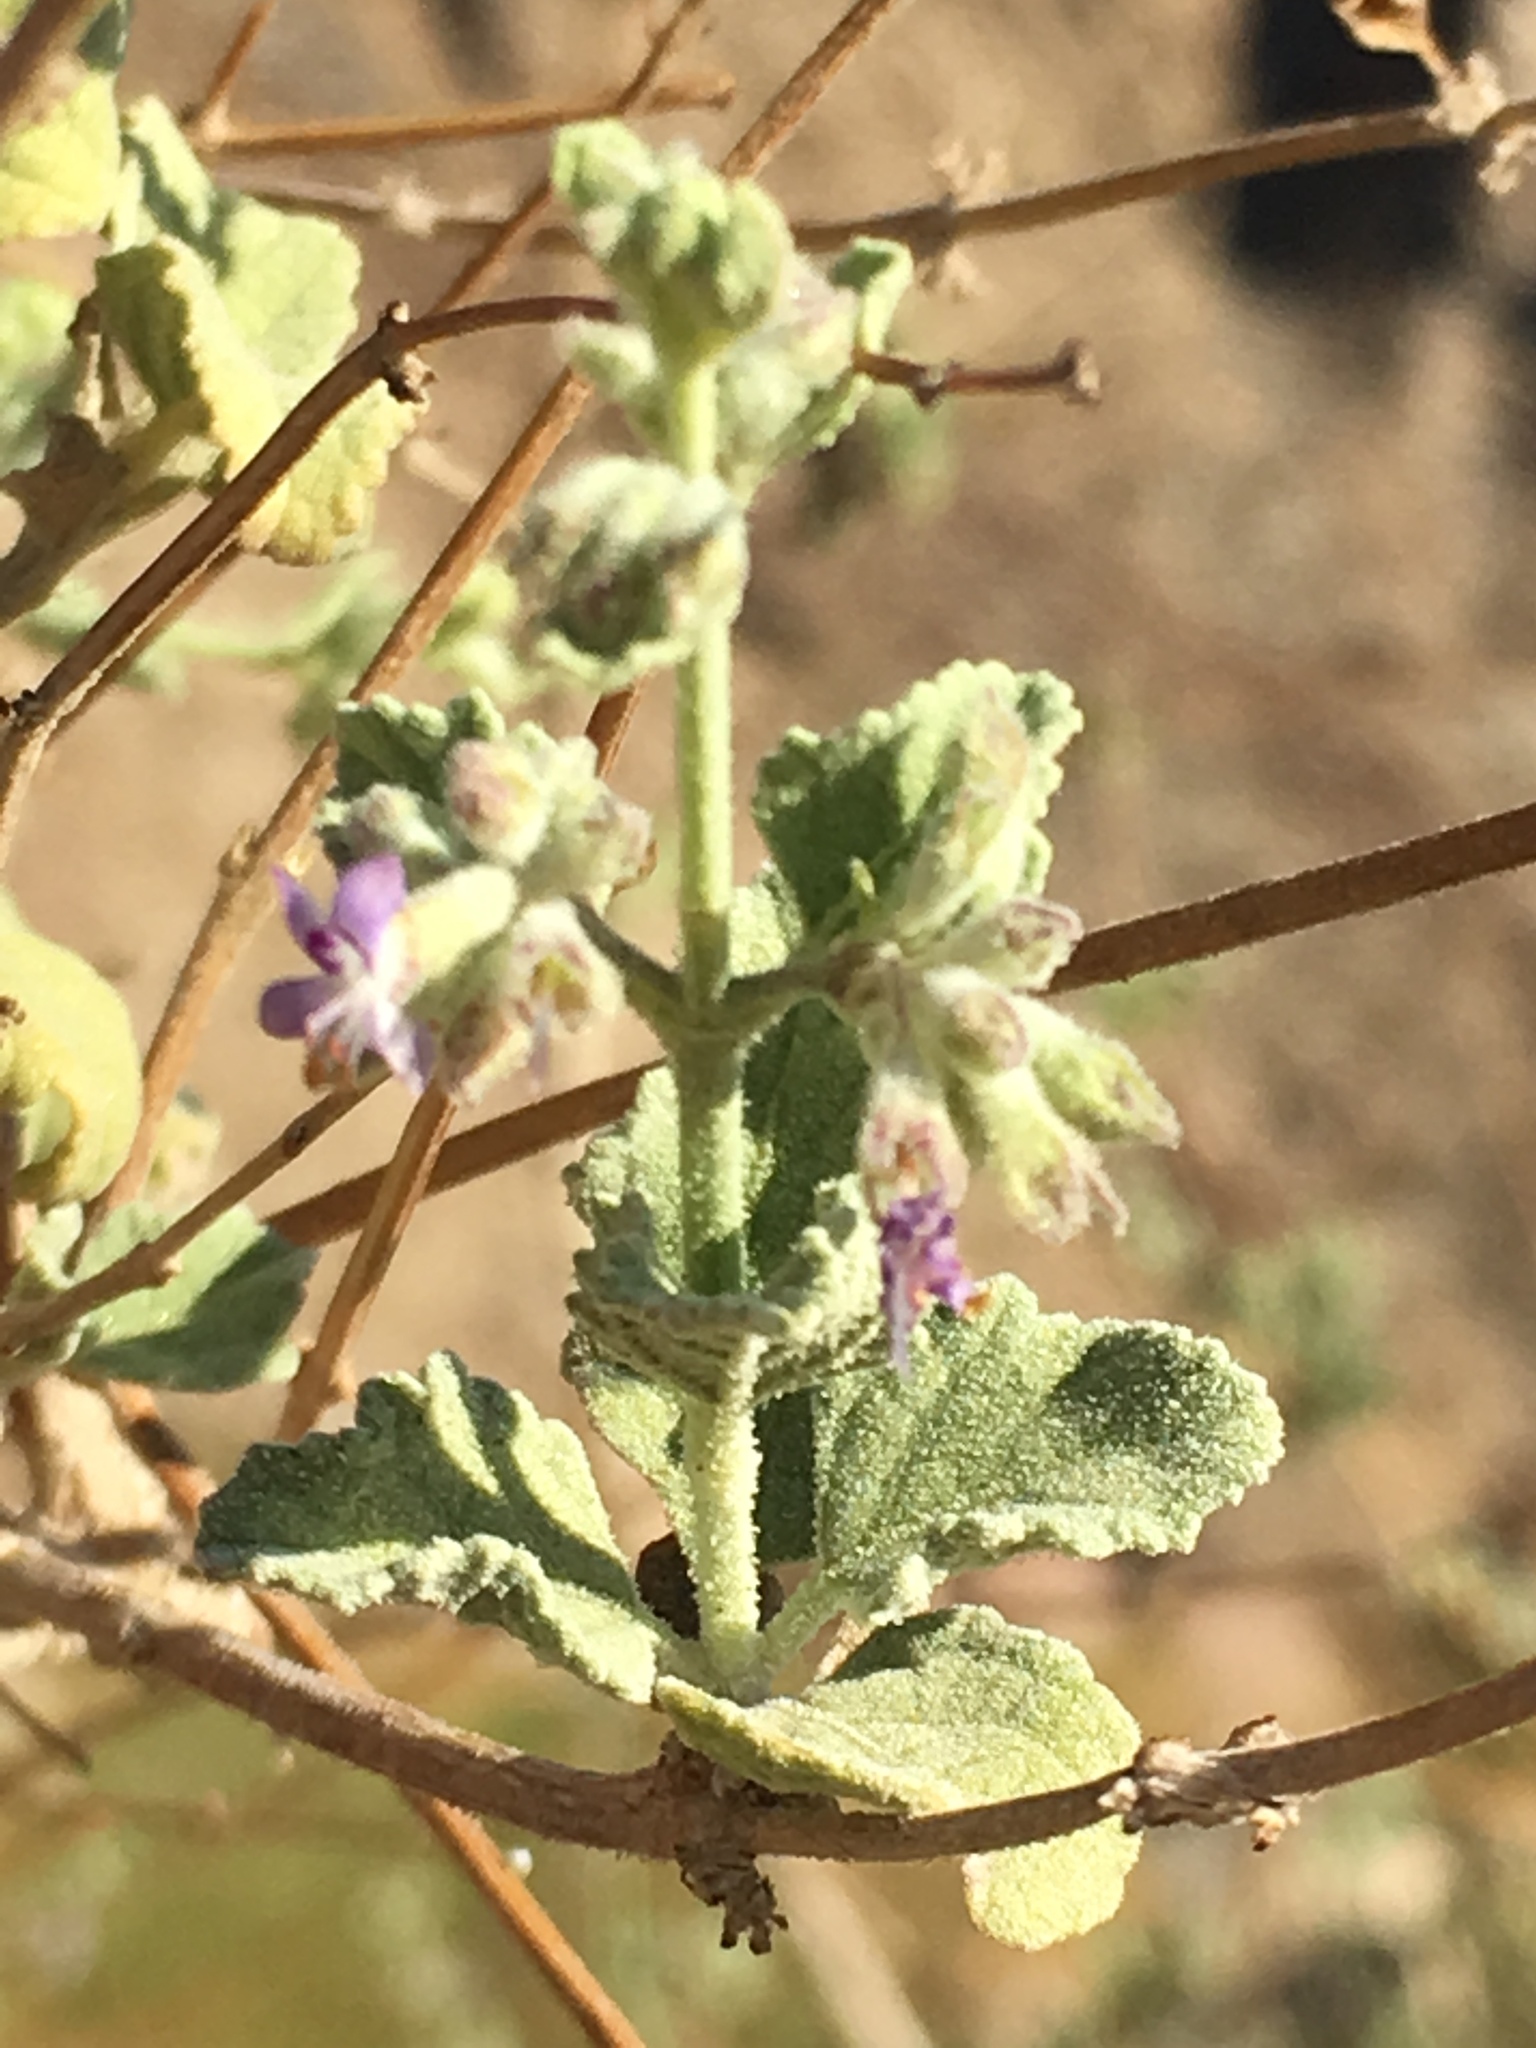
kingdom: Plantae
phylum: Tracheophyta
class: Magnoliopsida
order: Lamiales
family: Lamiaceae
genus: Condea
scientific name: Condea emoryi
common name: Chia
